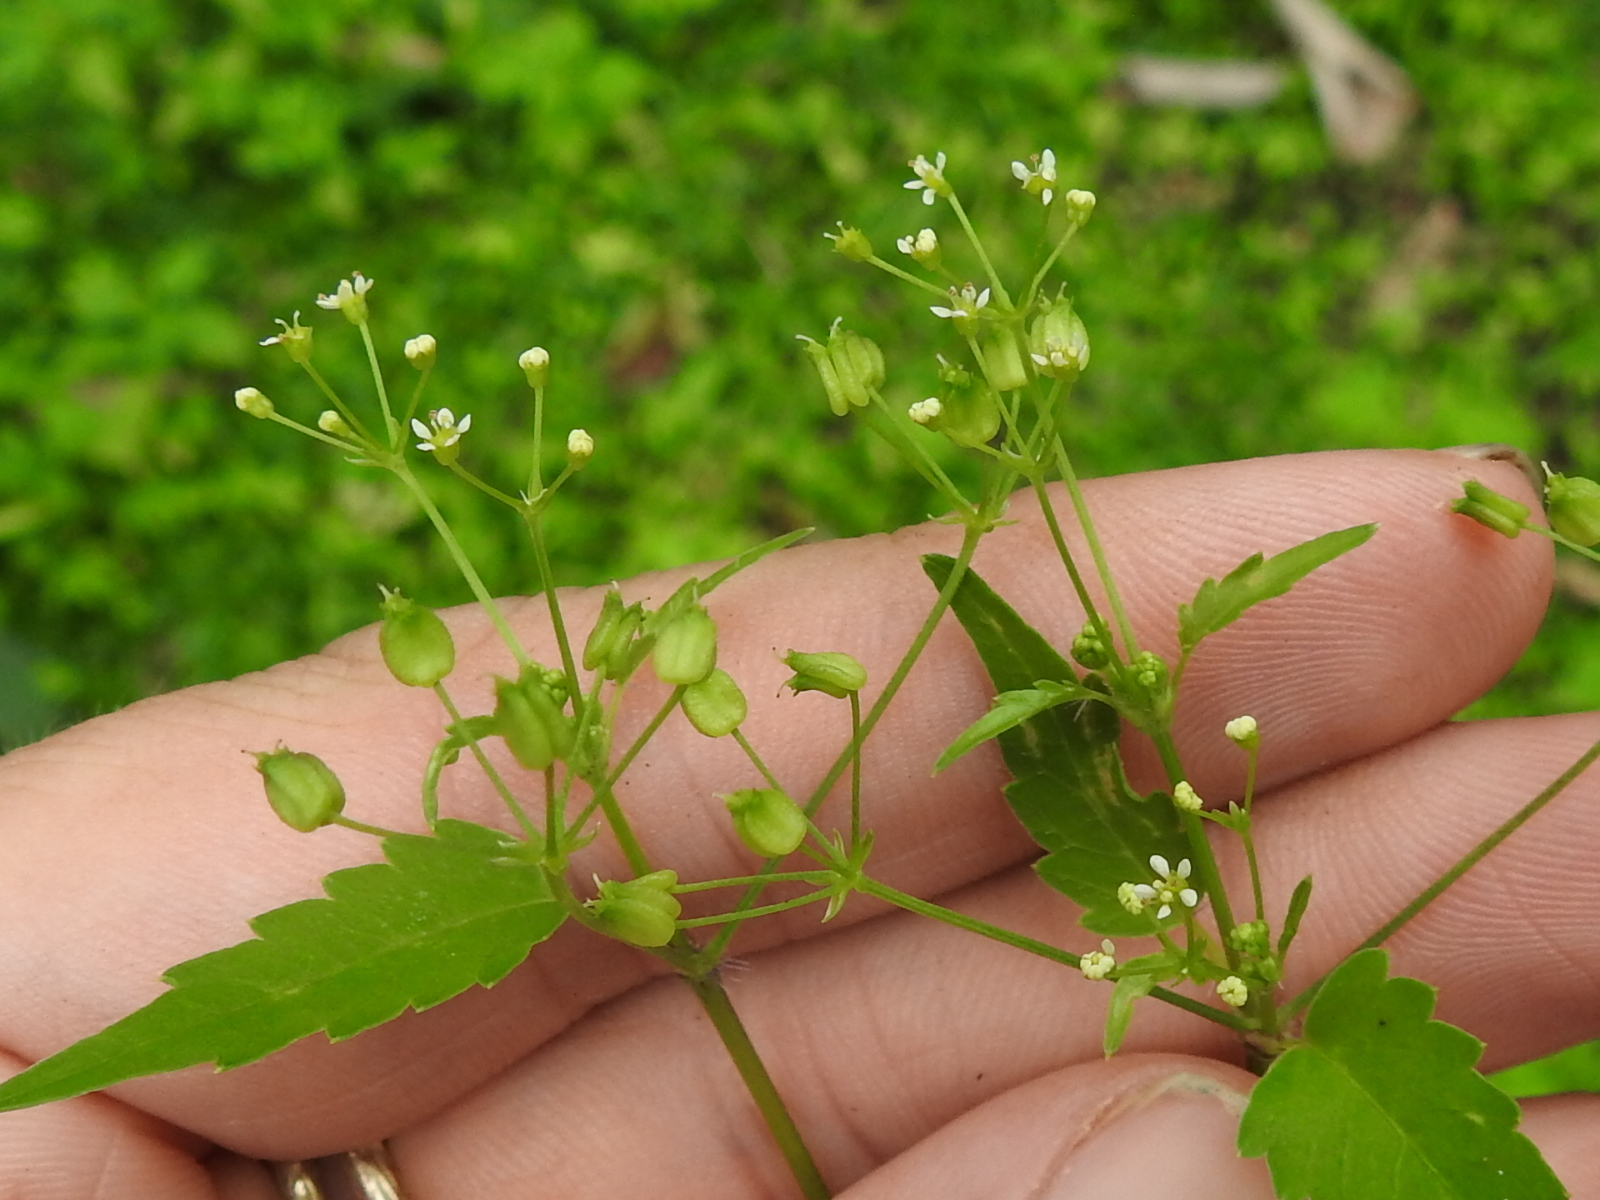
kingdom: Plantae
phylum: Tracheophyta
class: Magnoliopsida
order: Apiales
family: Apiaceae
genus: Spananthe
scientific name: Spananthe paniculata
